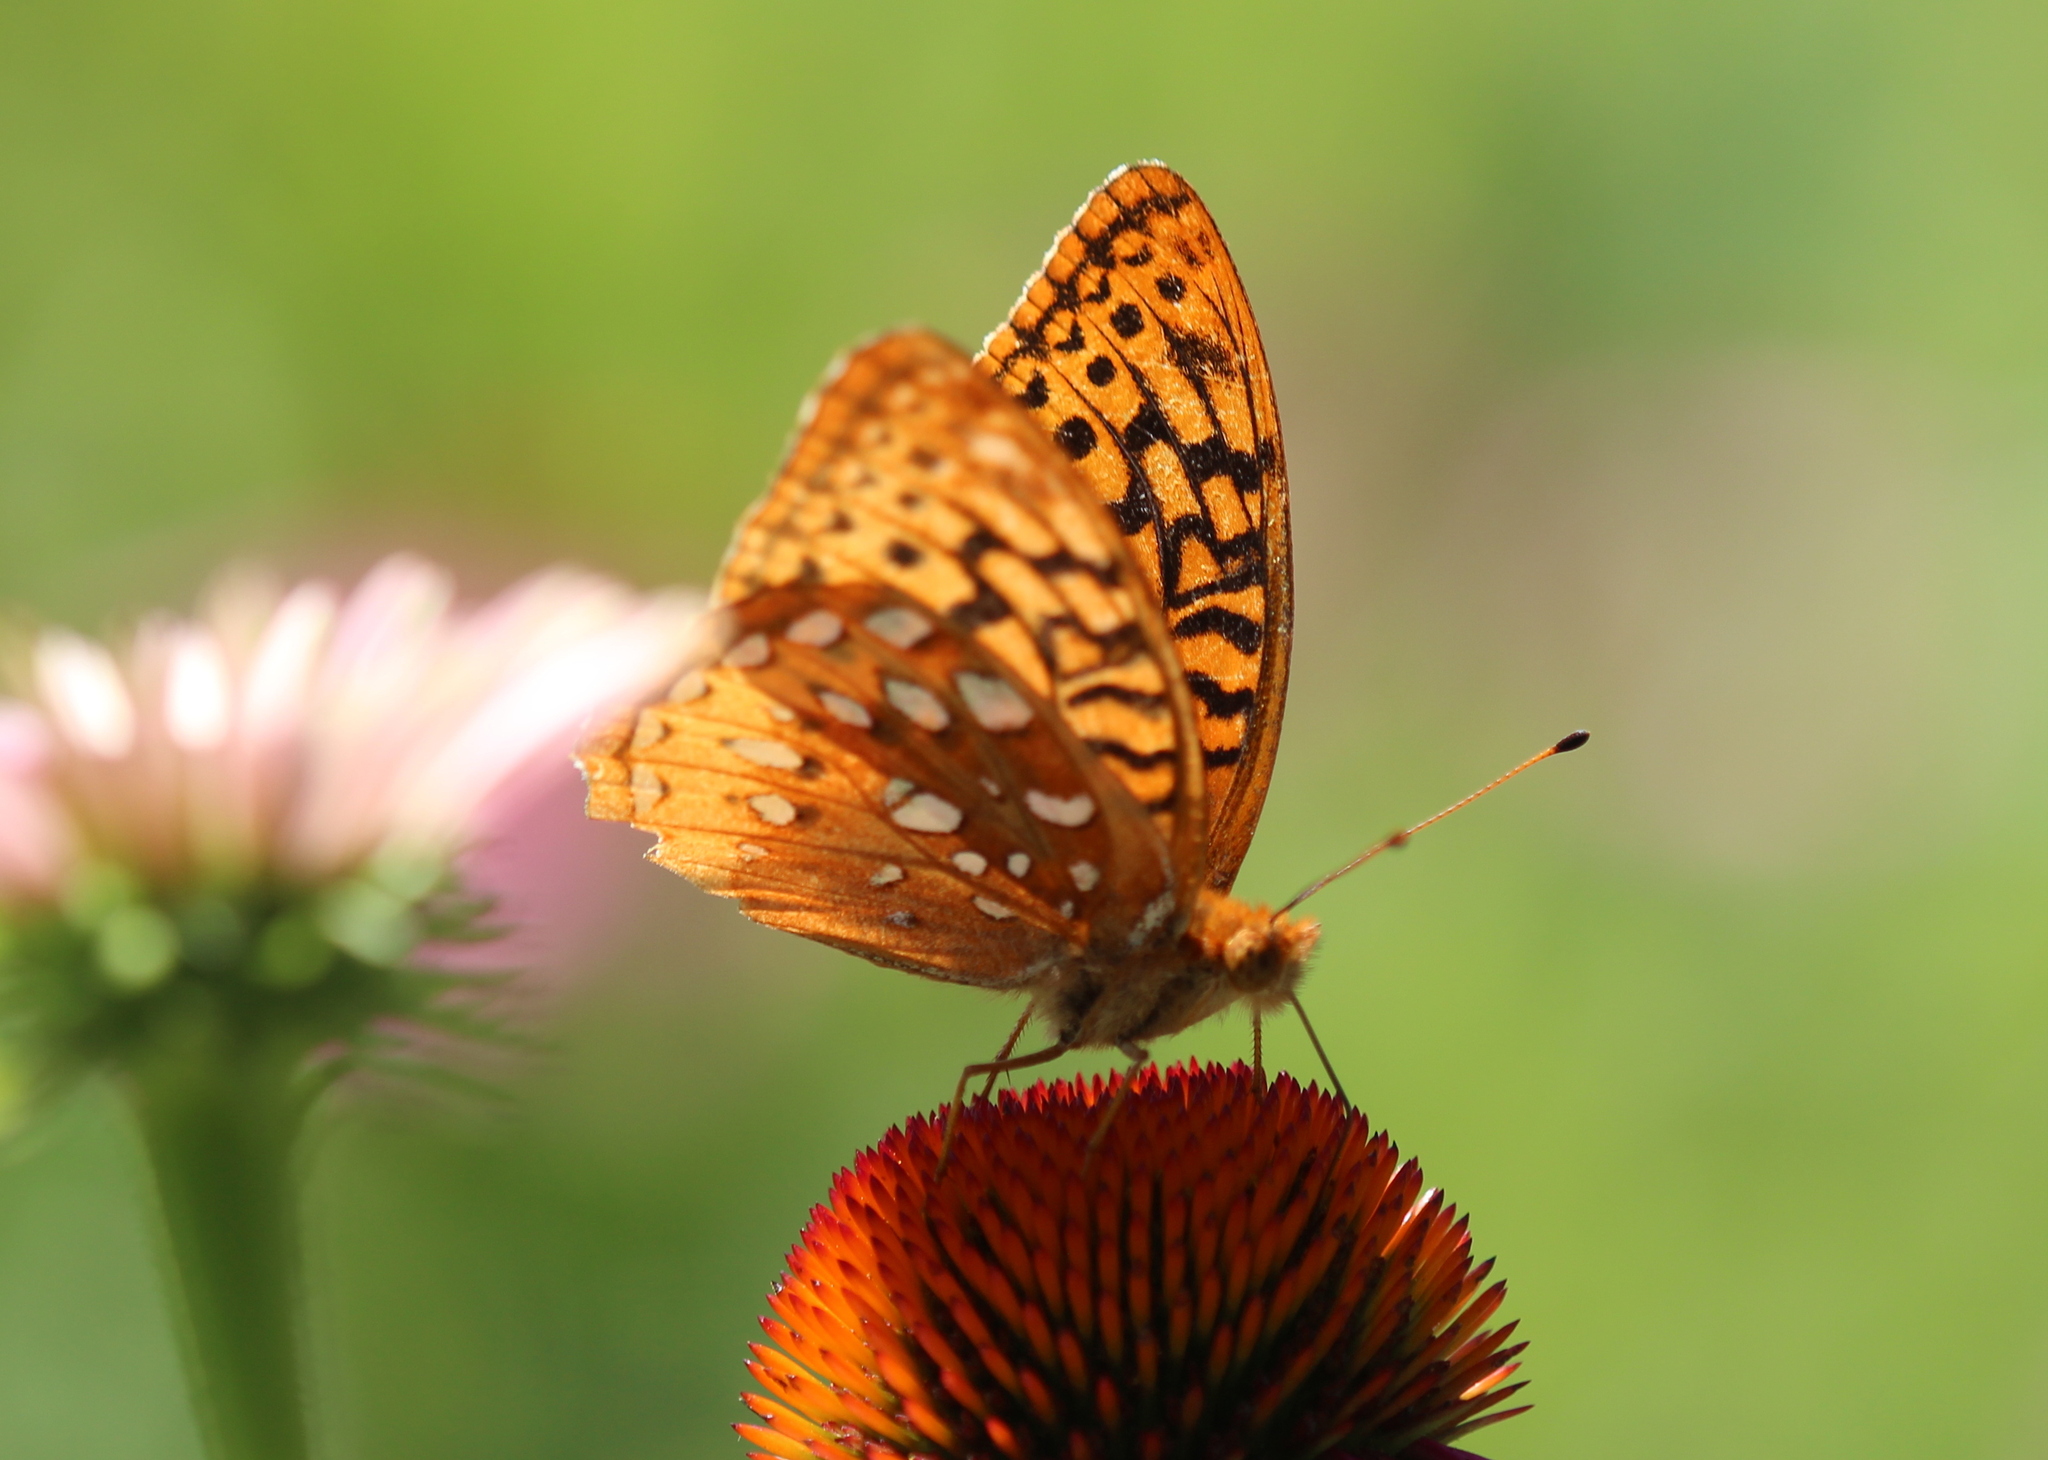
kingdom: Animalia
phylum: Arthropoda
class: Insecta
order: Lepidoptera
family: Nymphalidae
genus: Speyeria
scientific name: Speyeria cybele
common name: Great spangled fritillary
